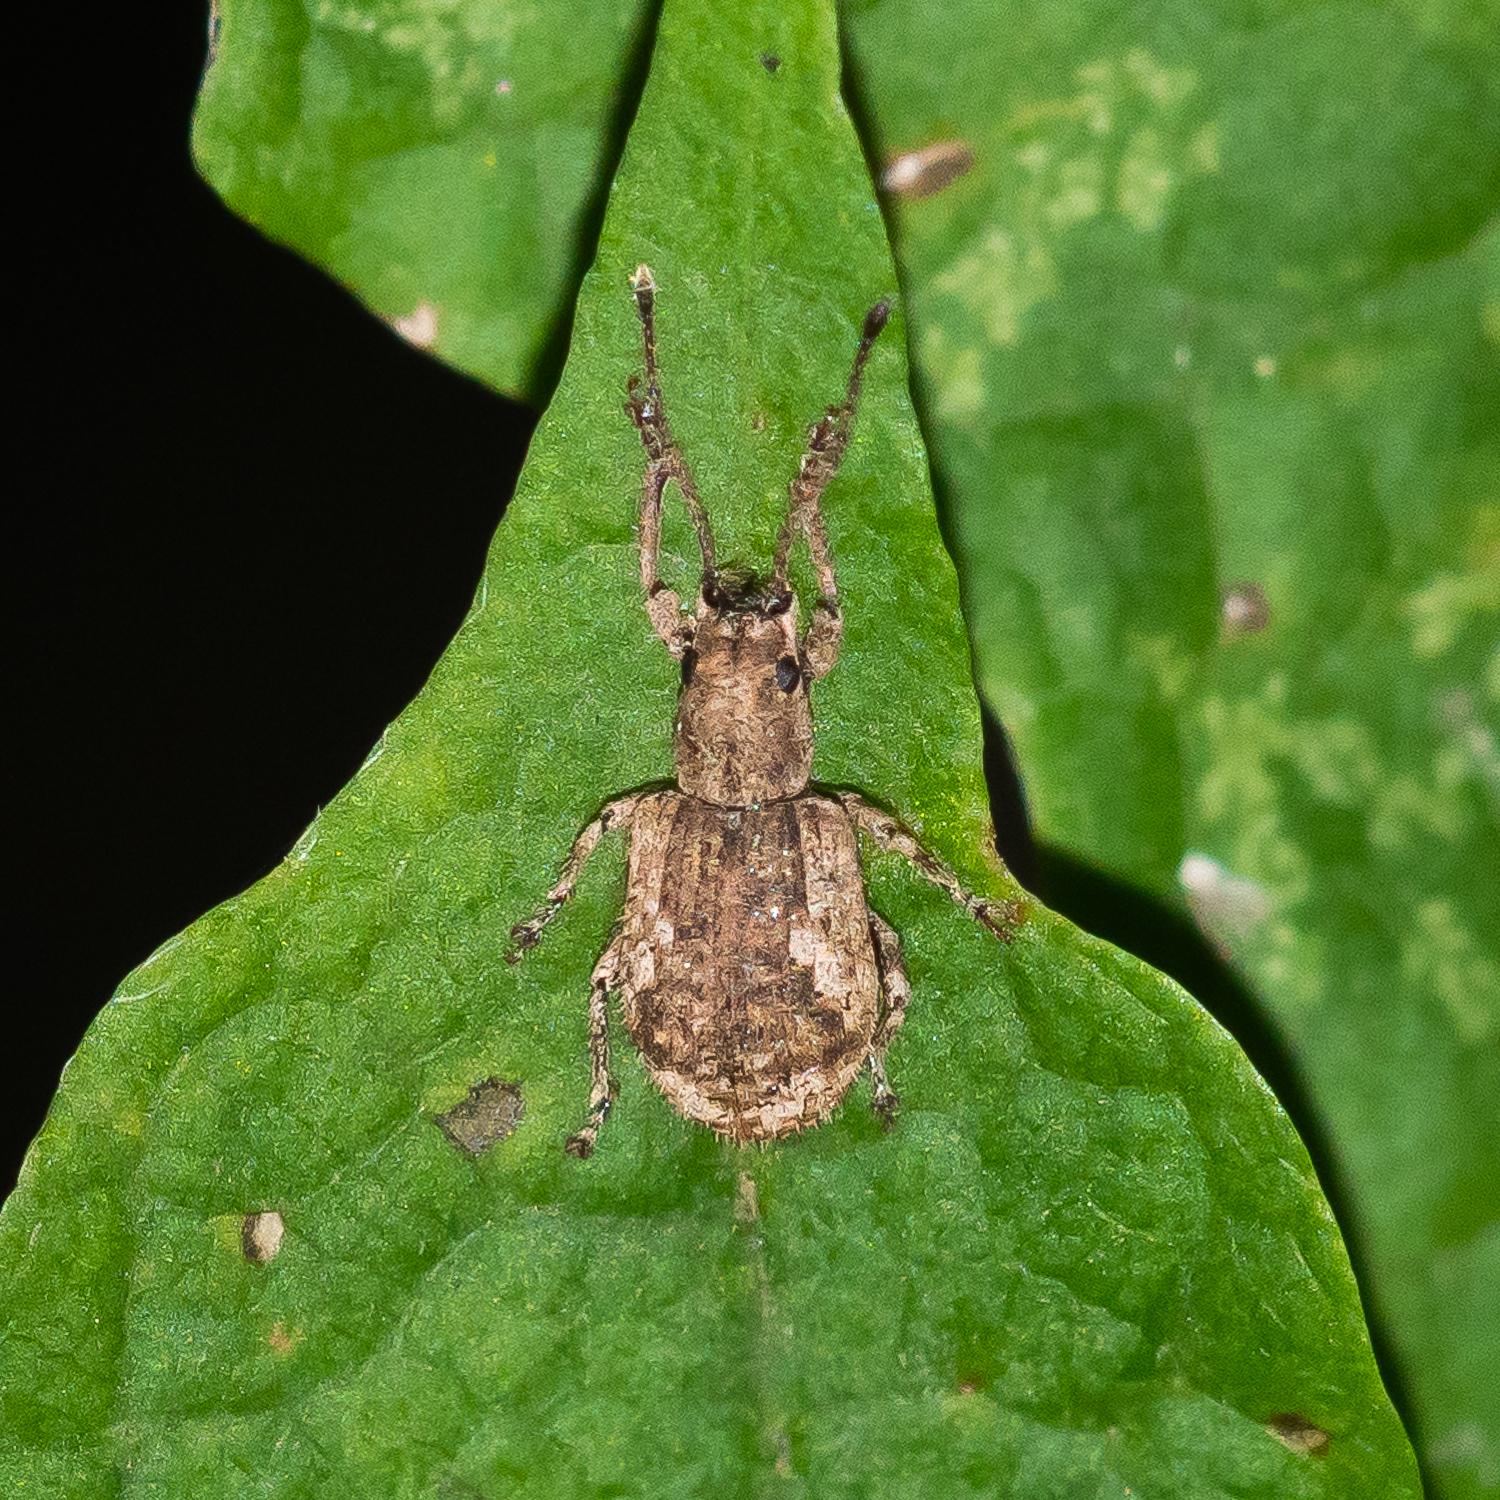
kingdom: Animalia
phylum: Arthropoda
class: Insecta
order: Coleoptera
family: Curculionidae
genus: Pseudoedophrys
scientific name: Pseudoedophrys hilleri
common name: Weevil
